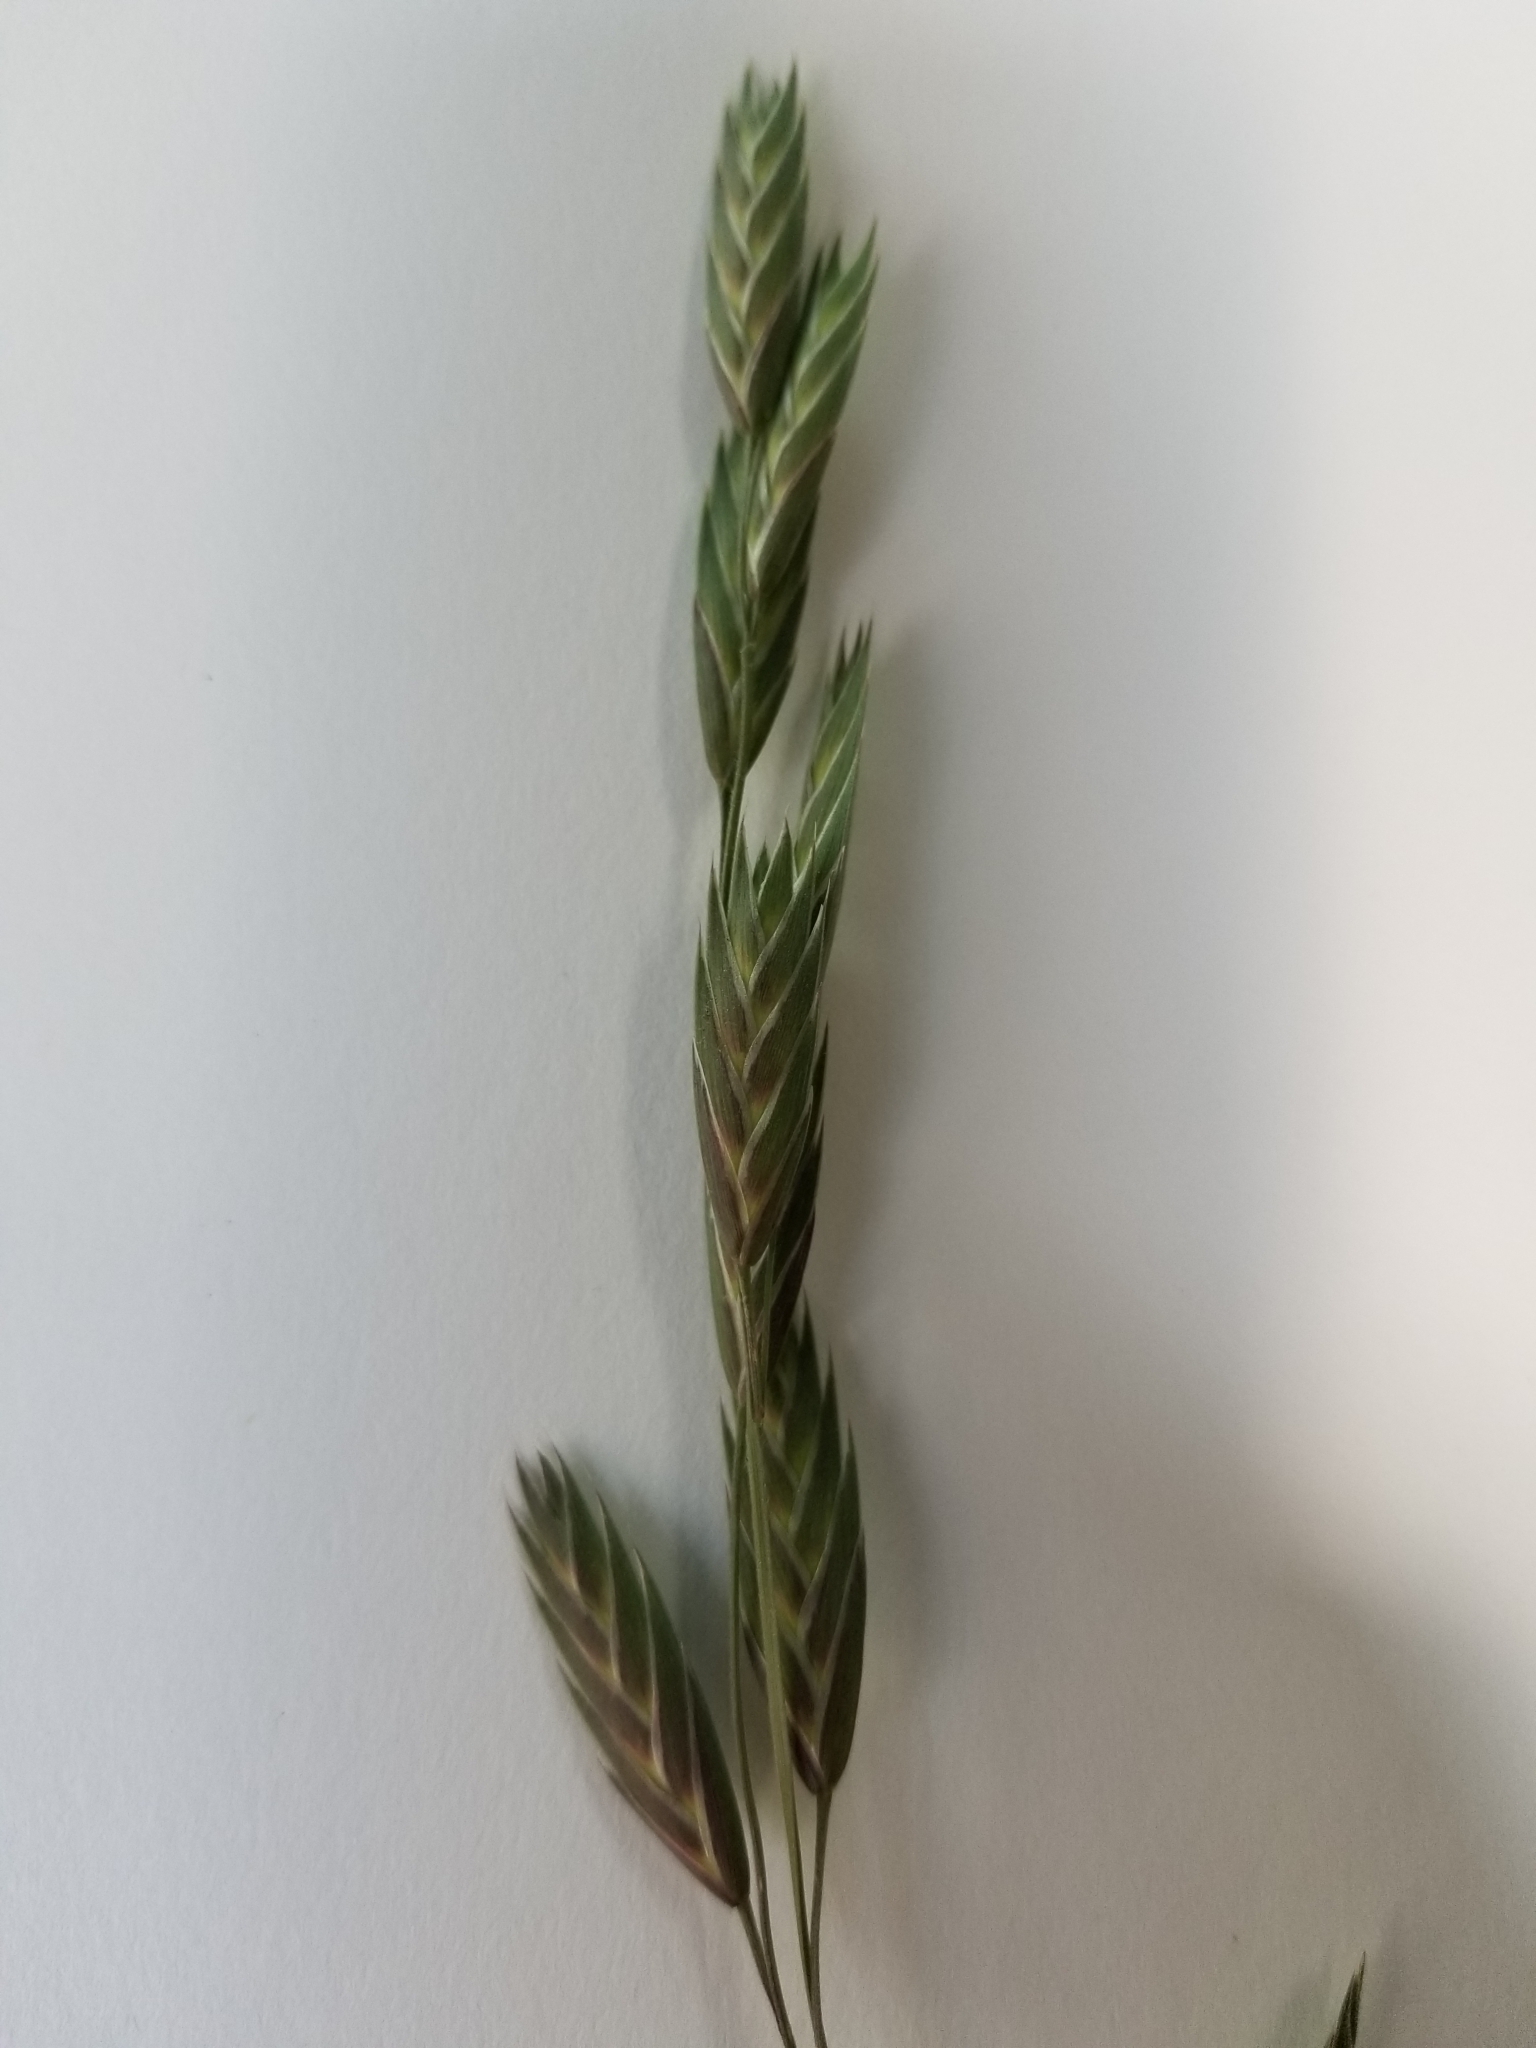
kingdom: Plantae
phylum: Tracheophyta
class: Liliopsida
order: Poales
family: Poaceae
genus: Bromus
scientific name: Bromus catharticus
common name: Rescuegrass
